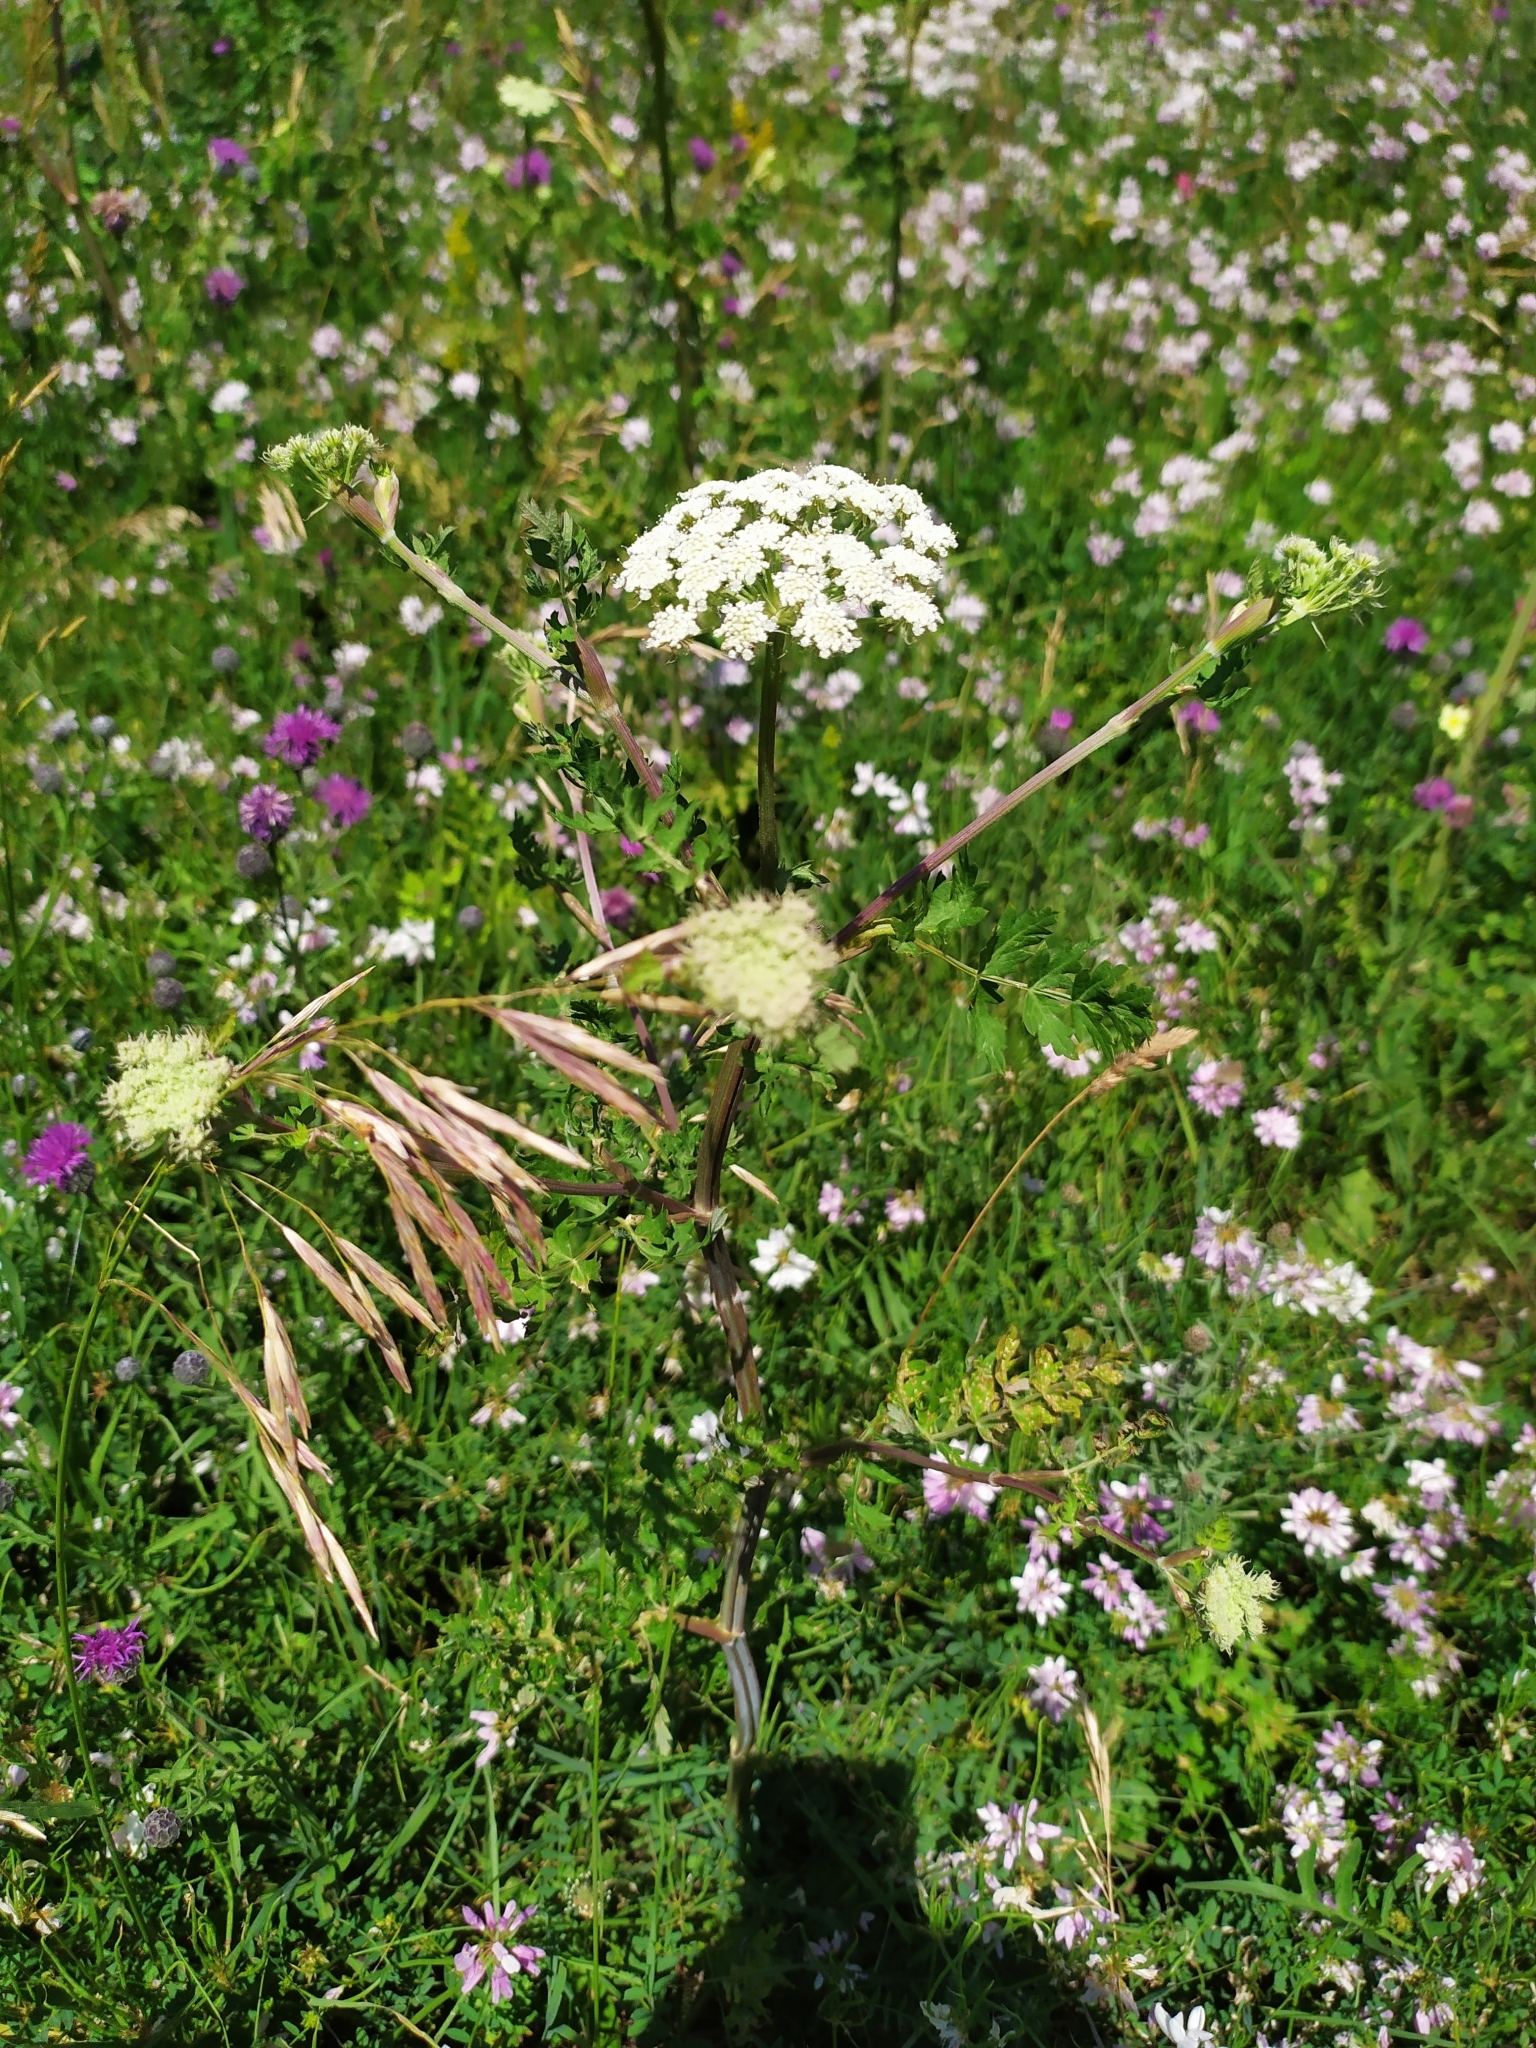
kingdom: Plantae
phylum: Tracheophyta
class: Magnoliopsida
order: Apiales
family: Apiaceae
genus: Seseli
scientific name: Seseli libanotis
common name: Mooncarrot
